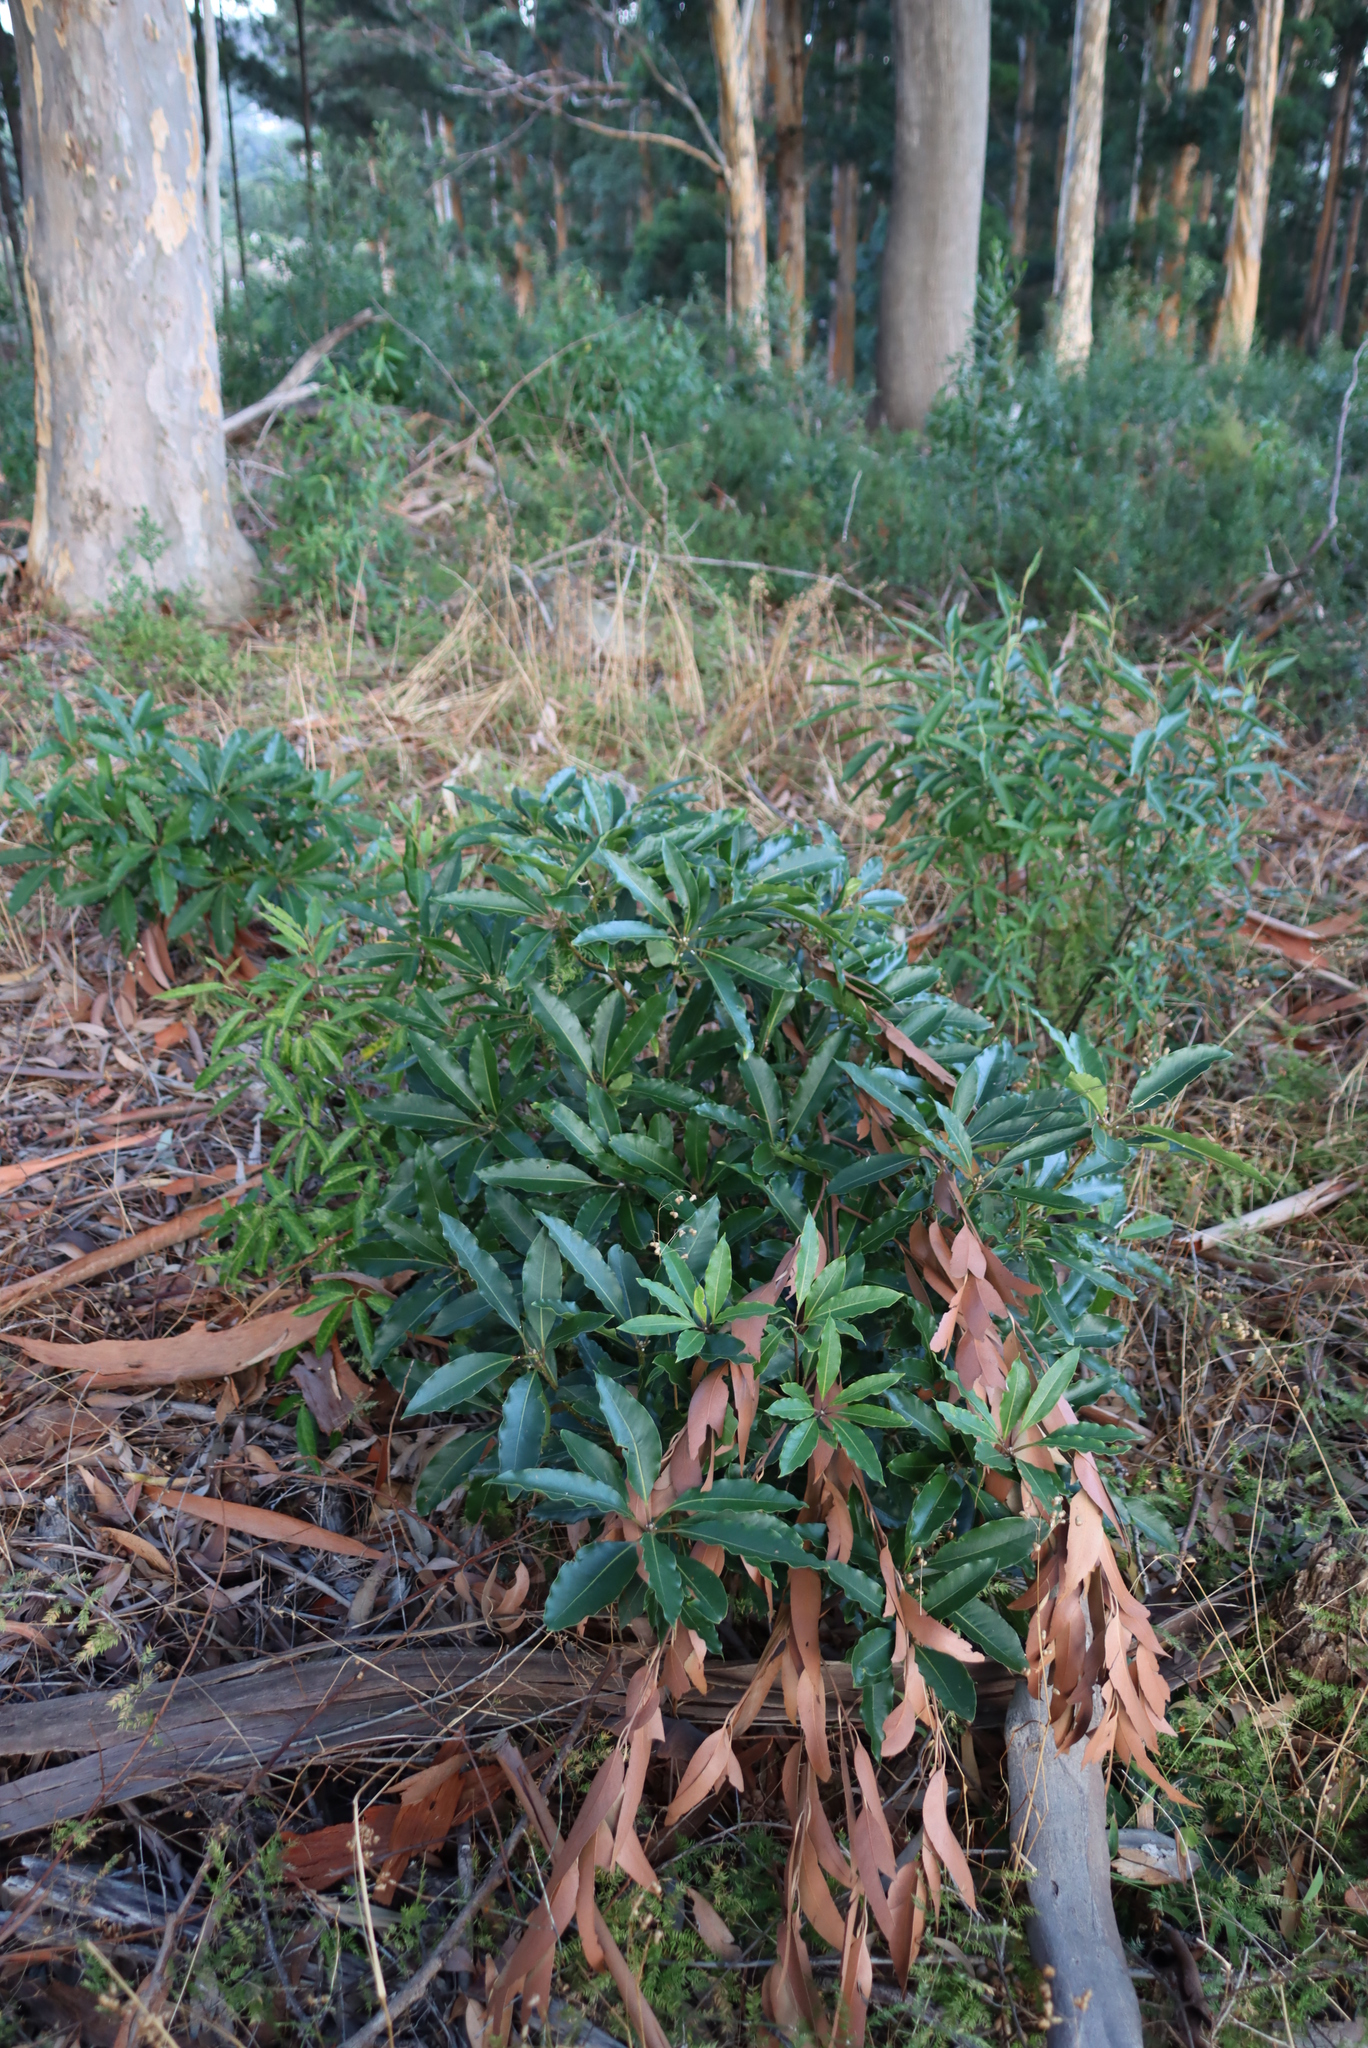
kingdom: Plantae
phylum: Tracheophyta
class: Magnoliopsida
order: Apiales
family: Pittosporaceae
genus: Pittosporum
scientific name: Pittosporum undulatum
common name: Australian cheesewood
